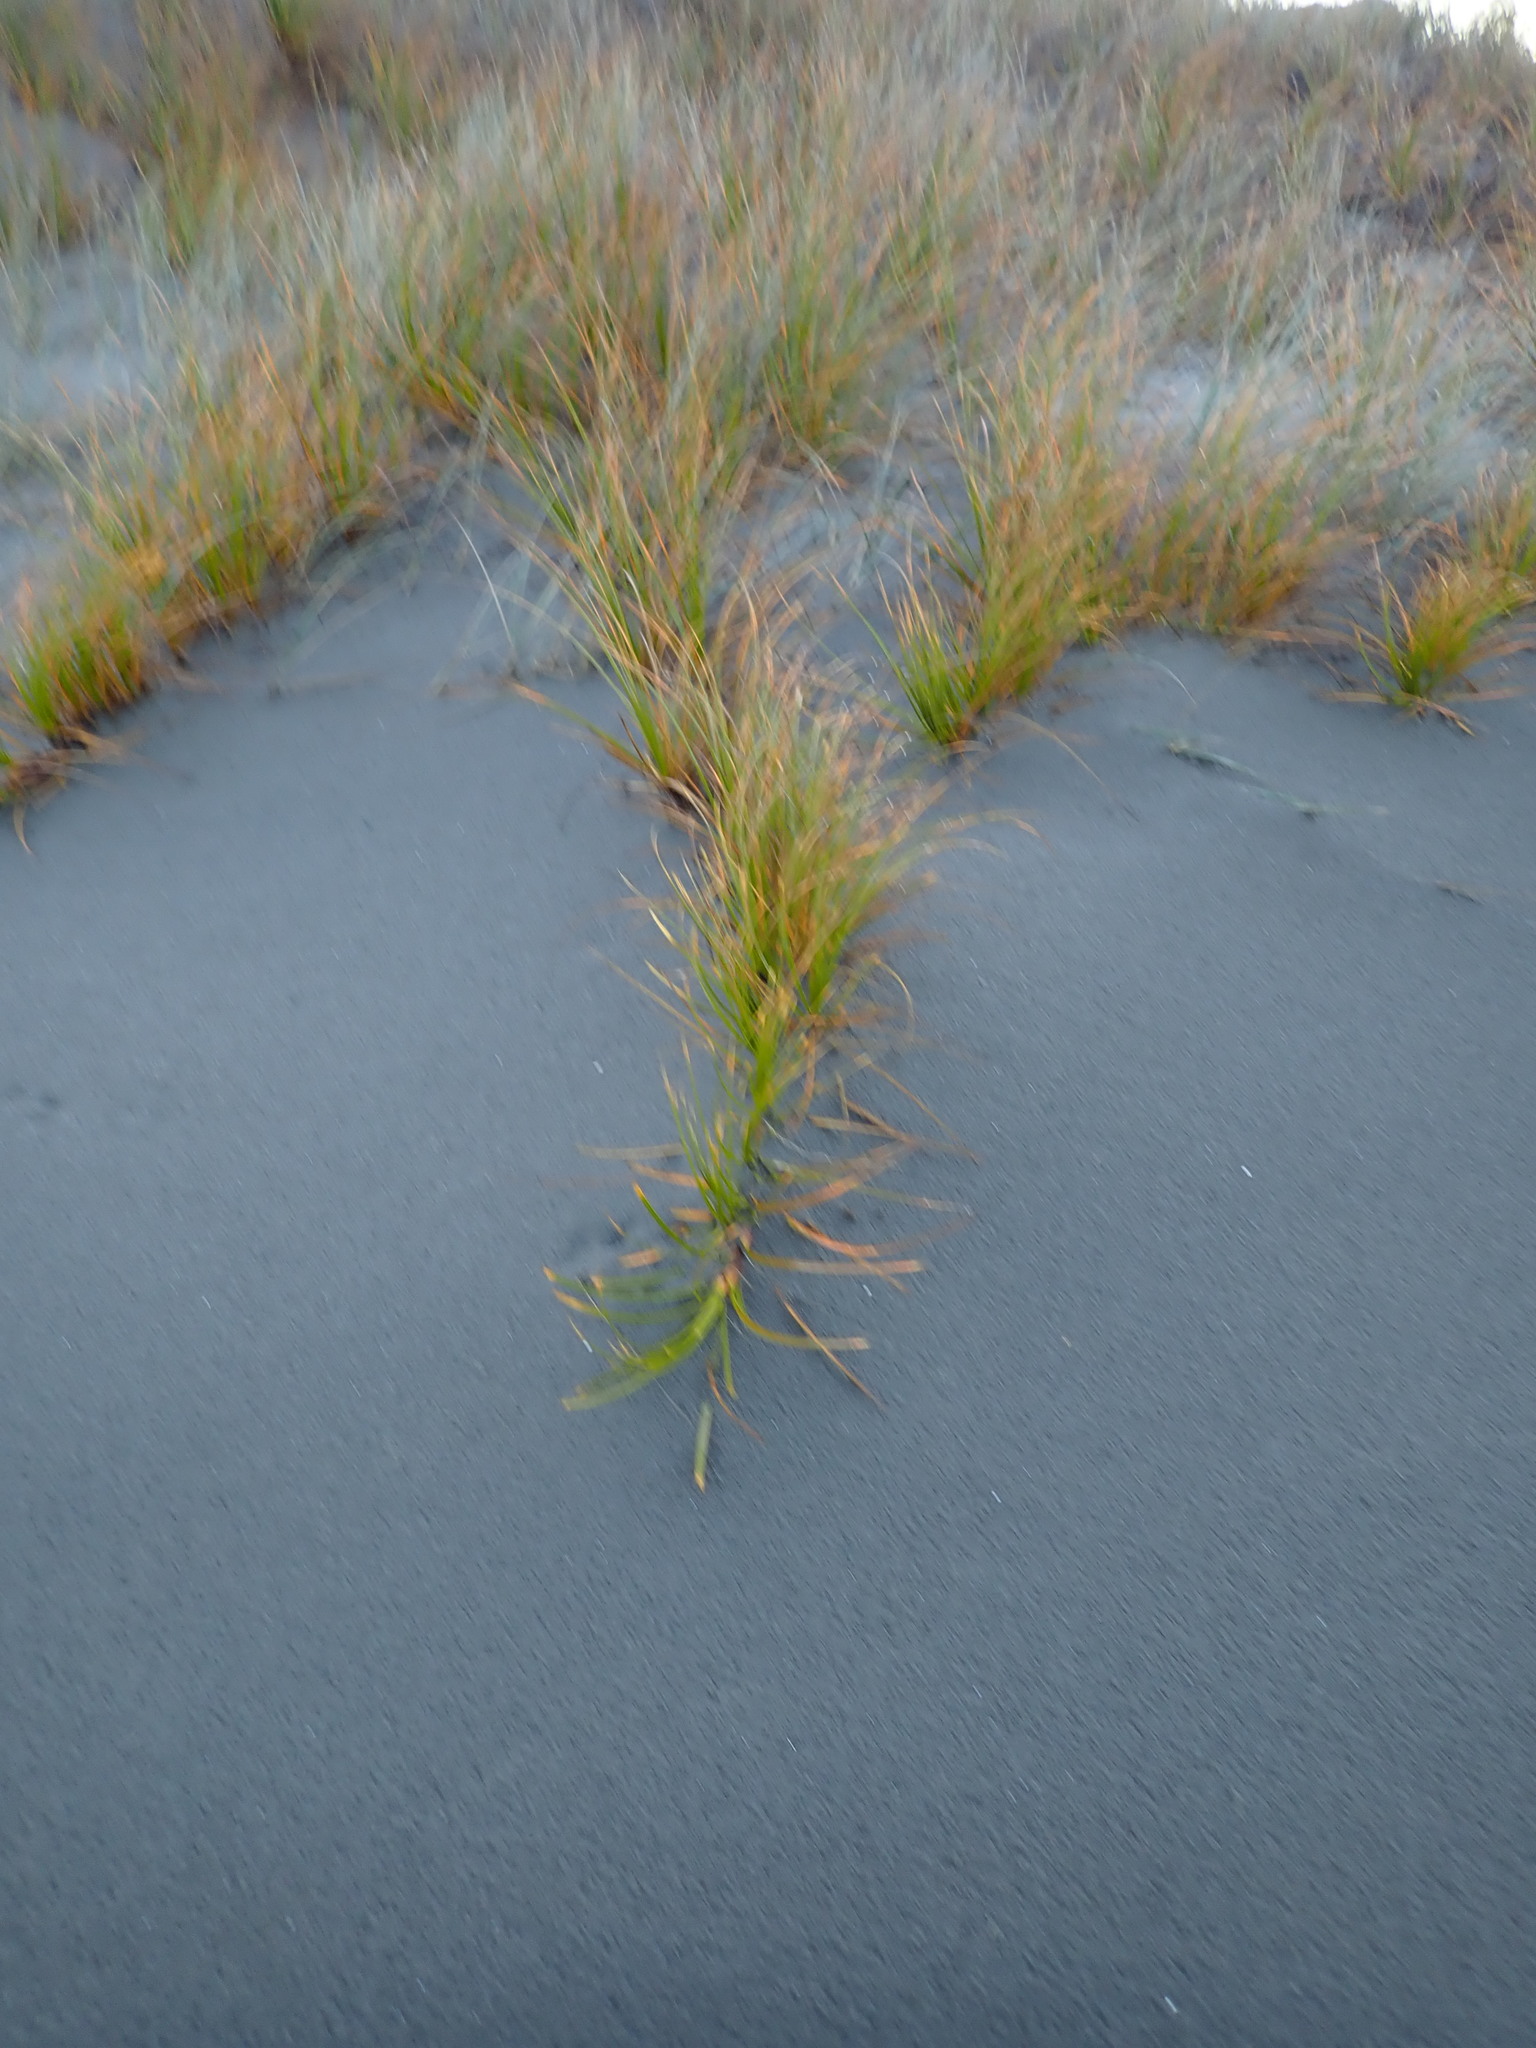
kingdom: Plantae
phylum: Tracheophyta
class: Liliopsida
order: Poales
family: Cyperaceae
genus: Ficinia
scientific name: Ficinia spiralis
